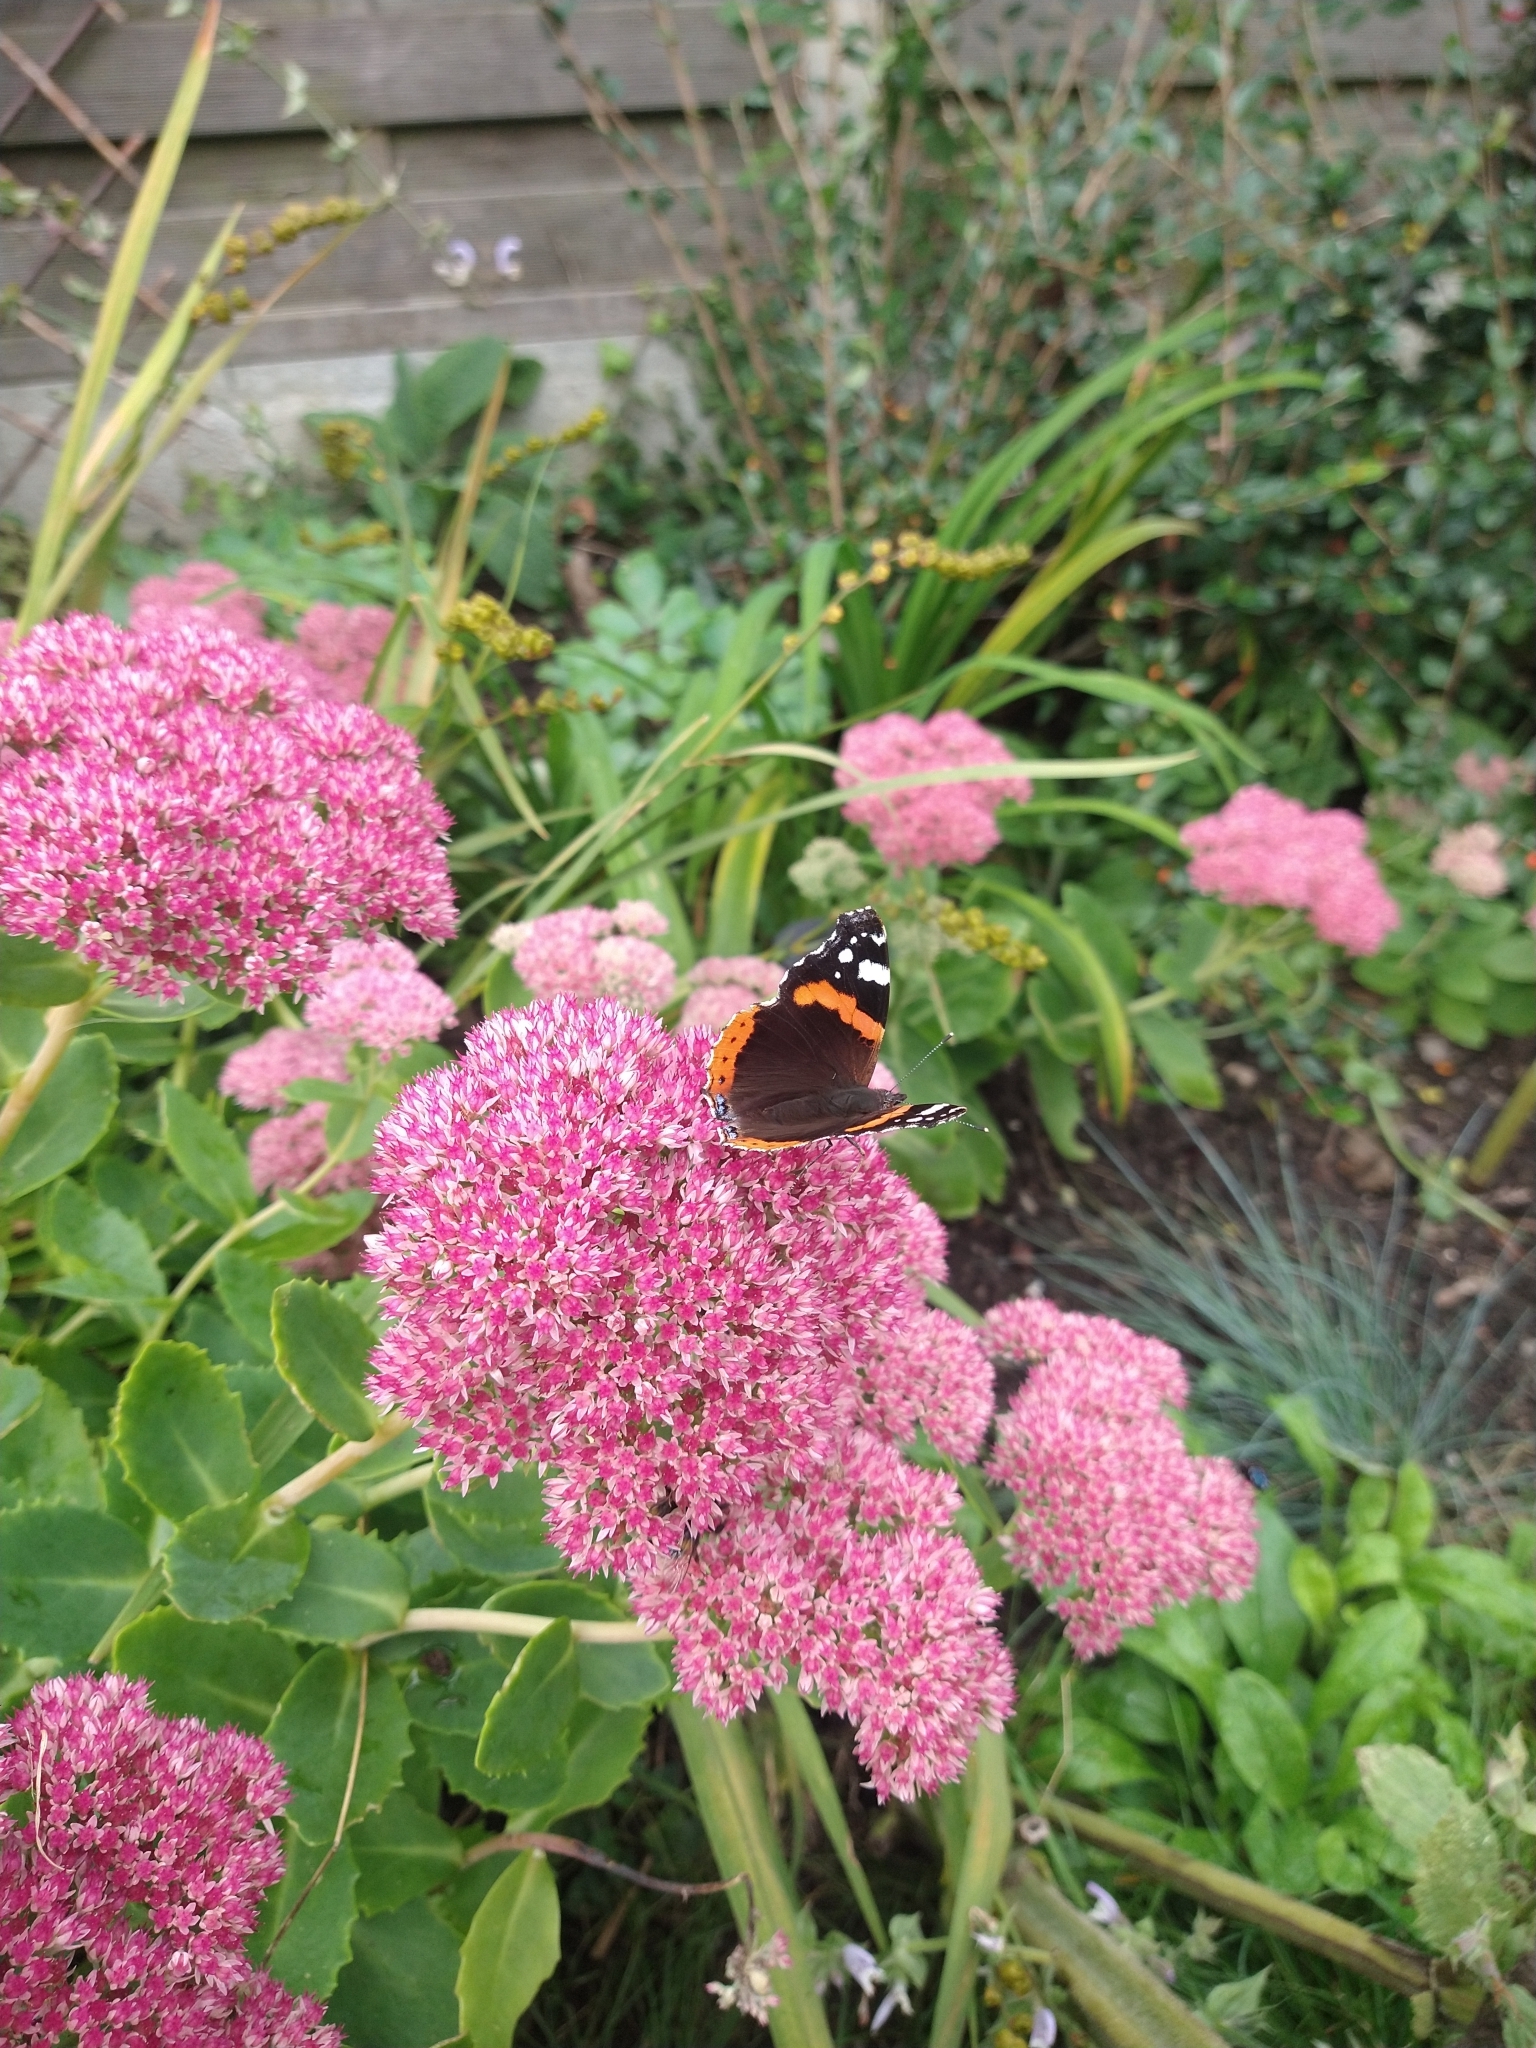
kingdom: Animalia
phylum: Arthropoda
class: Insecta
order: Lepidoptera
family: Nymphalidae
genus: Vanessa
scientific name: Vanessa atalanta
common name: Red admiral
